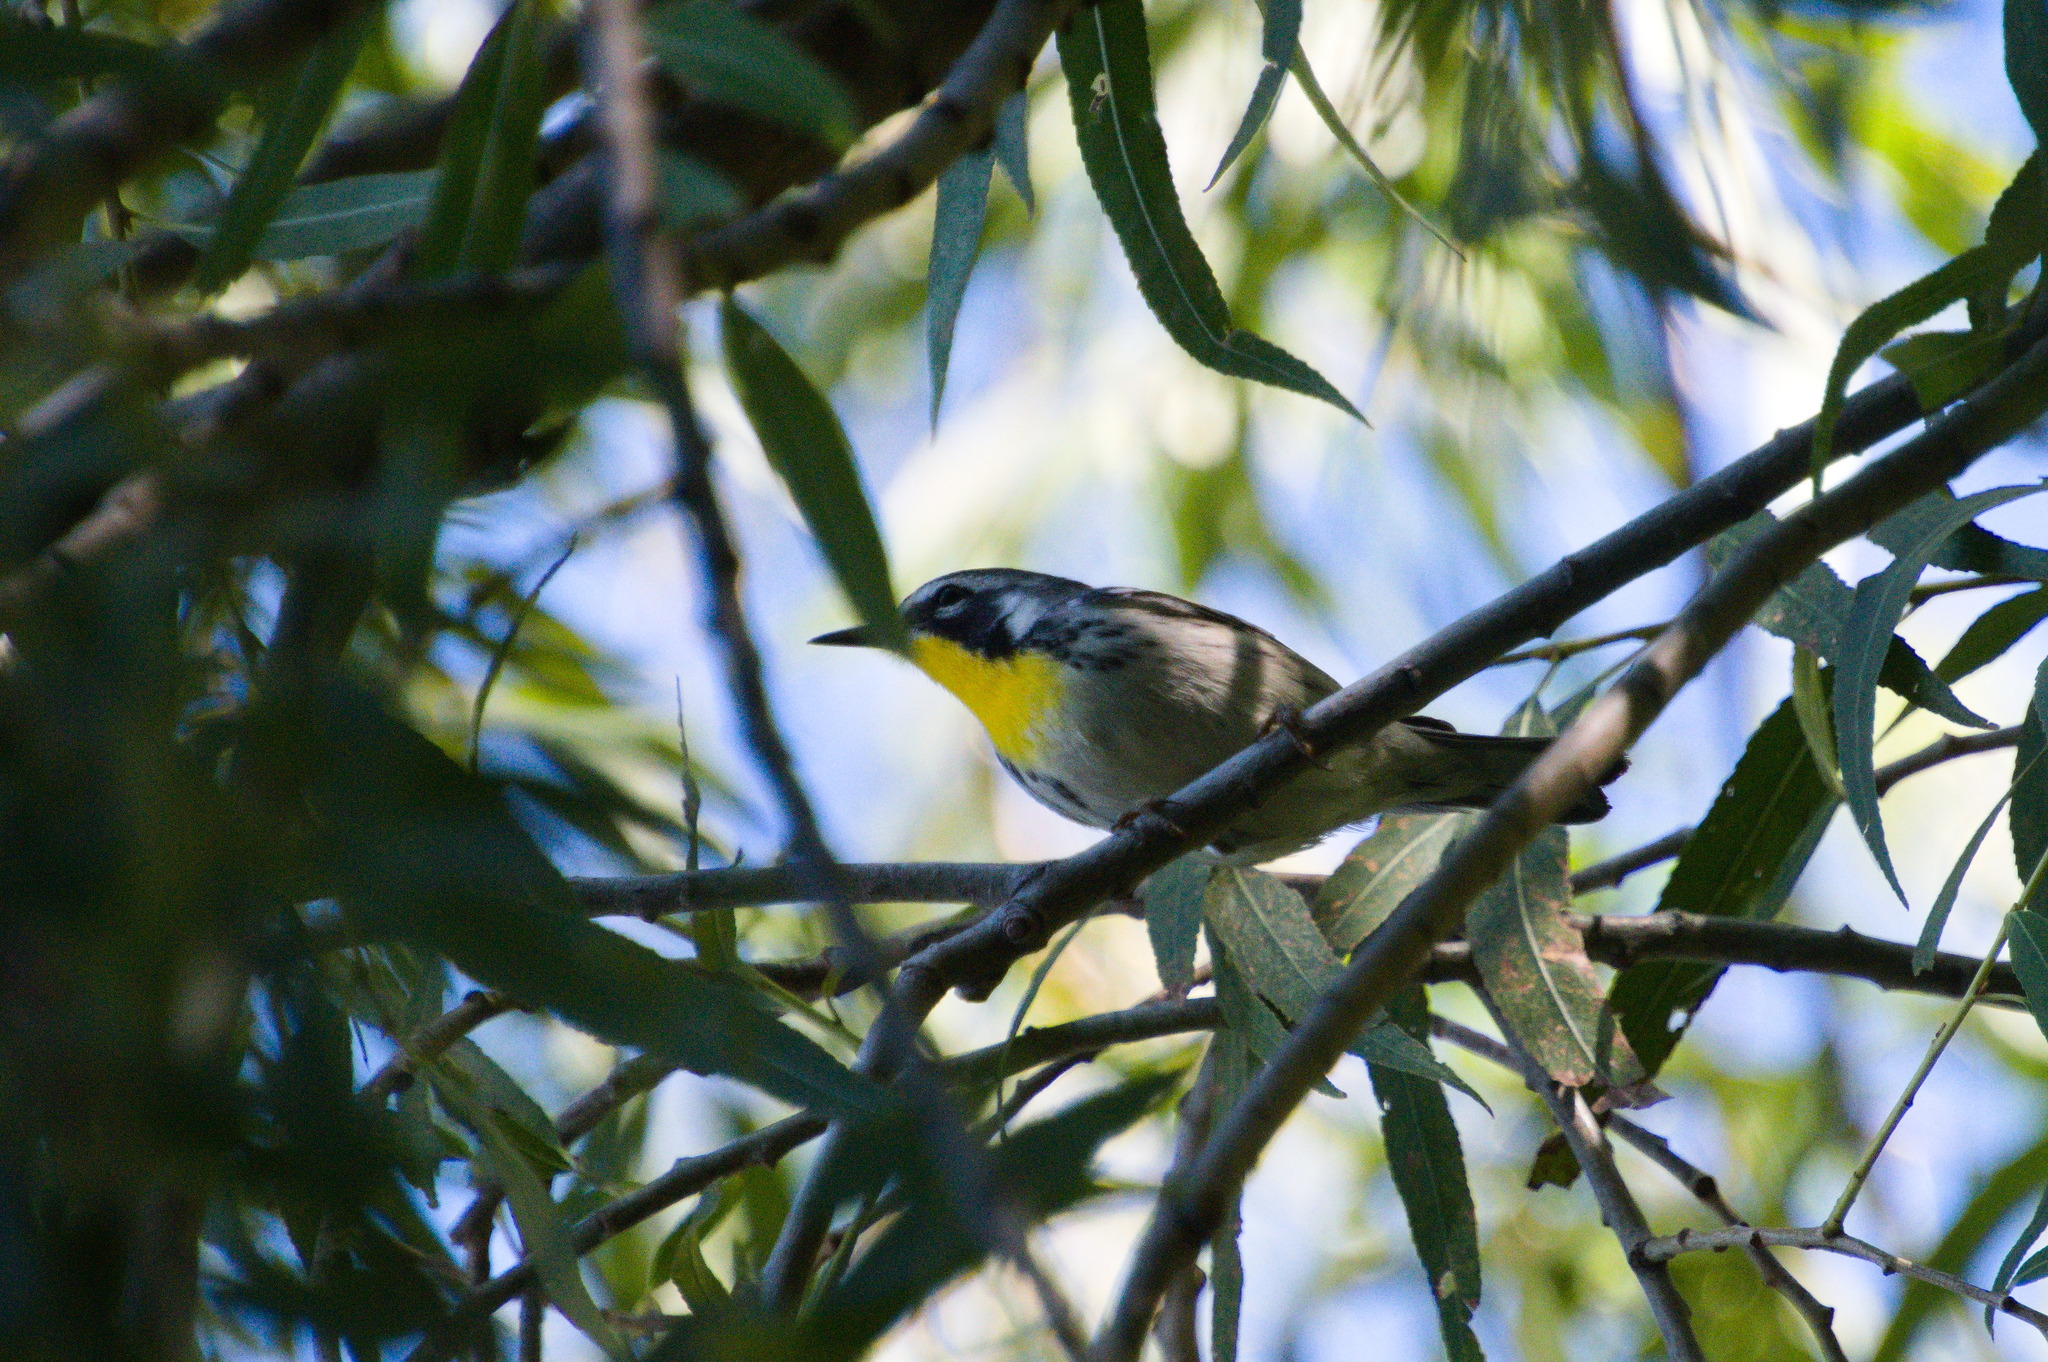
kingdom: Animalia
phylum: Chordata
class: Aves
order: Passeriformes
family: Parulidae
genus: Setophaga
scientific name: Setophaga dominica
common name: Yellow-throated warbler
